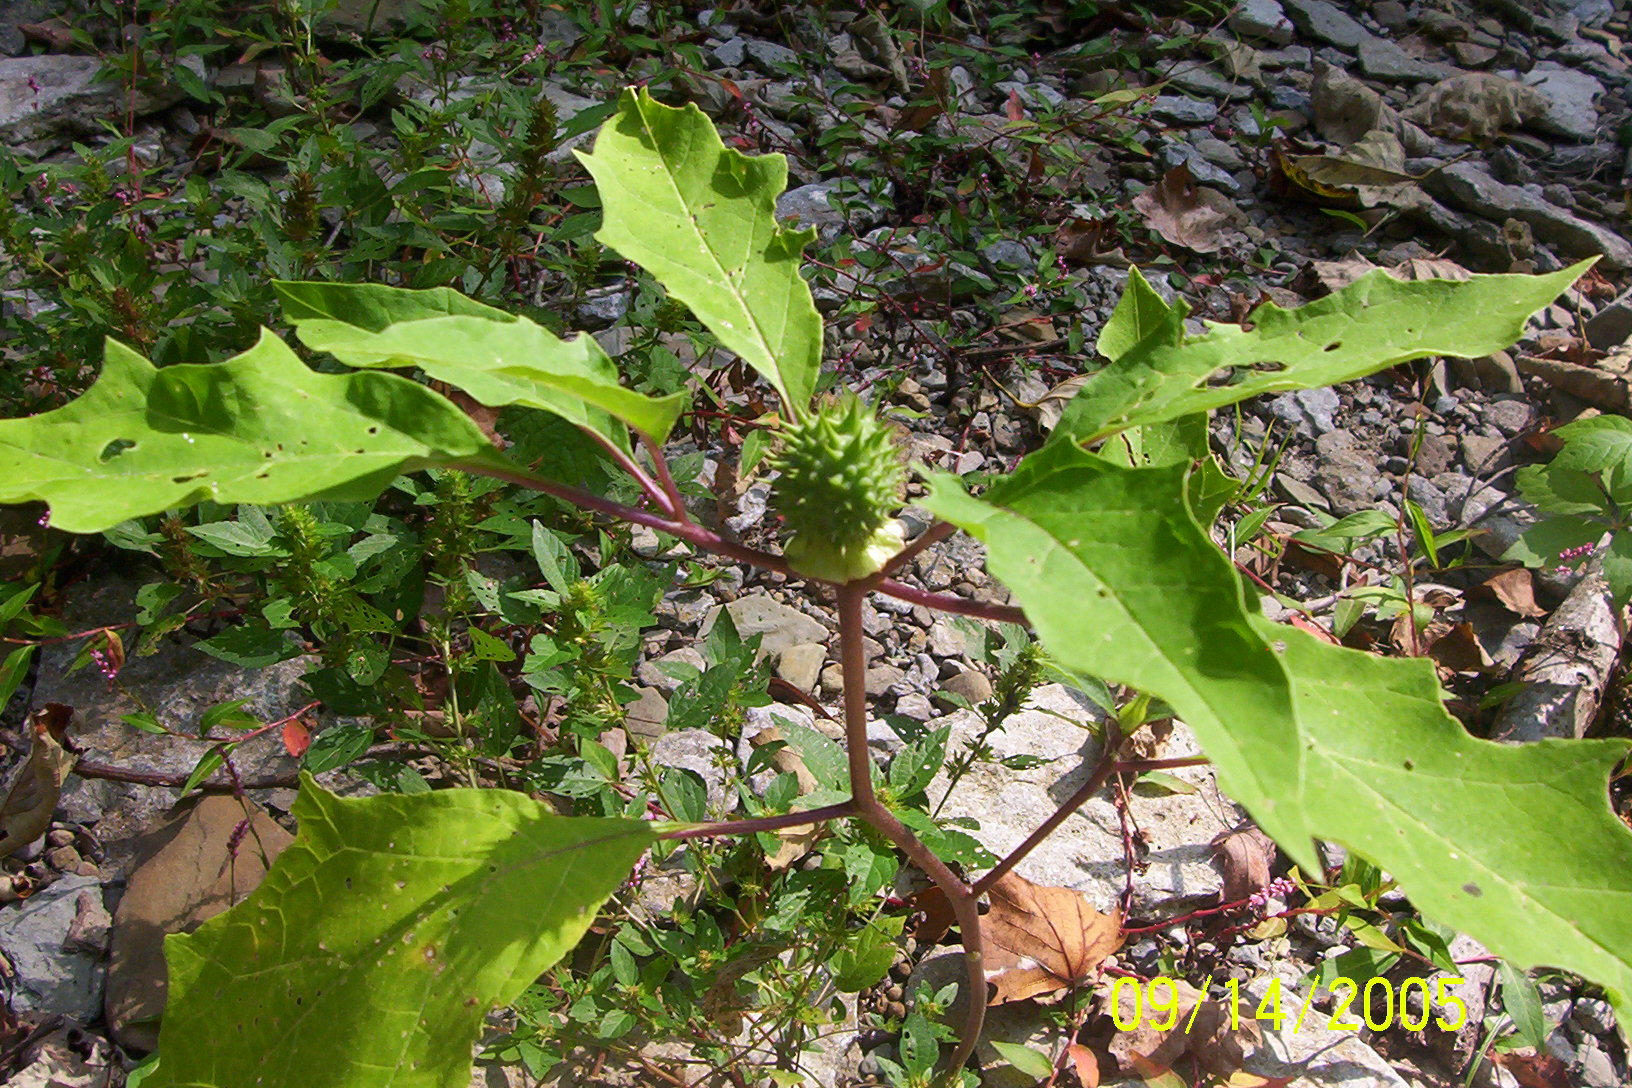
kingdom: Plantae
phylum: Tracheophyta
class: Magnoliopsida
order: Solanales
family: Solanaceae
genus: Datura
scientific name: Datura stramonium
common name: Thorn-apple
